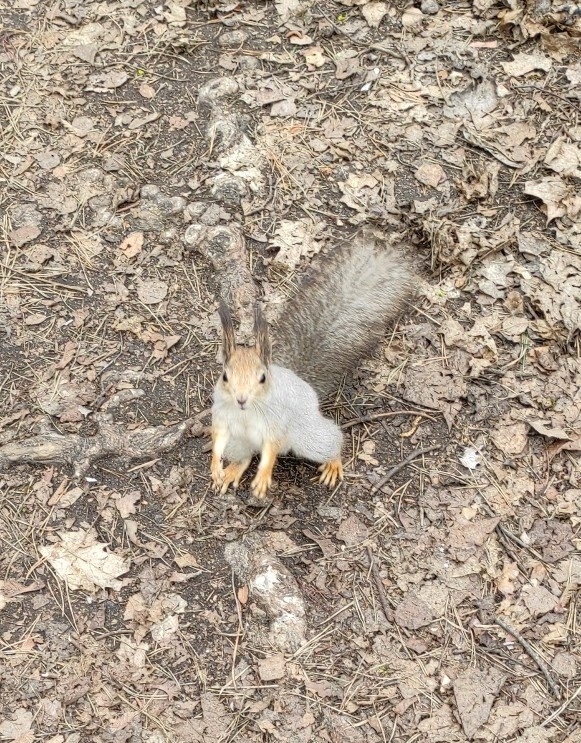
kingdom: Animalia
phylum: Chordata
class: Mammalia
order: Rodentia
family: Sciuridae
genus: Sciurus
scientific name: Sciurus vulgaris
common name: Eurasian red squirrel
